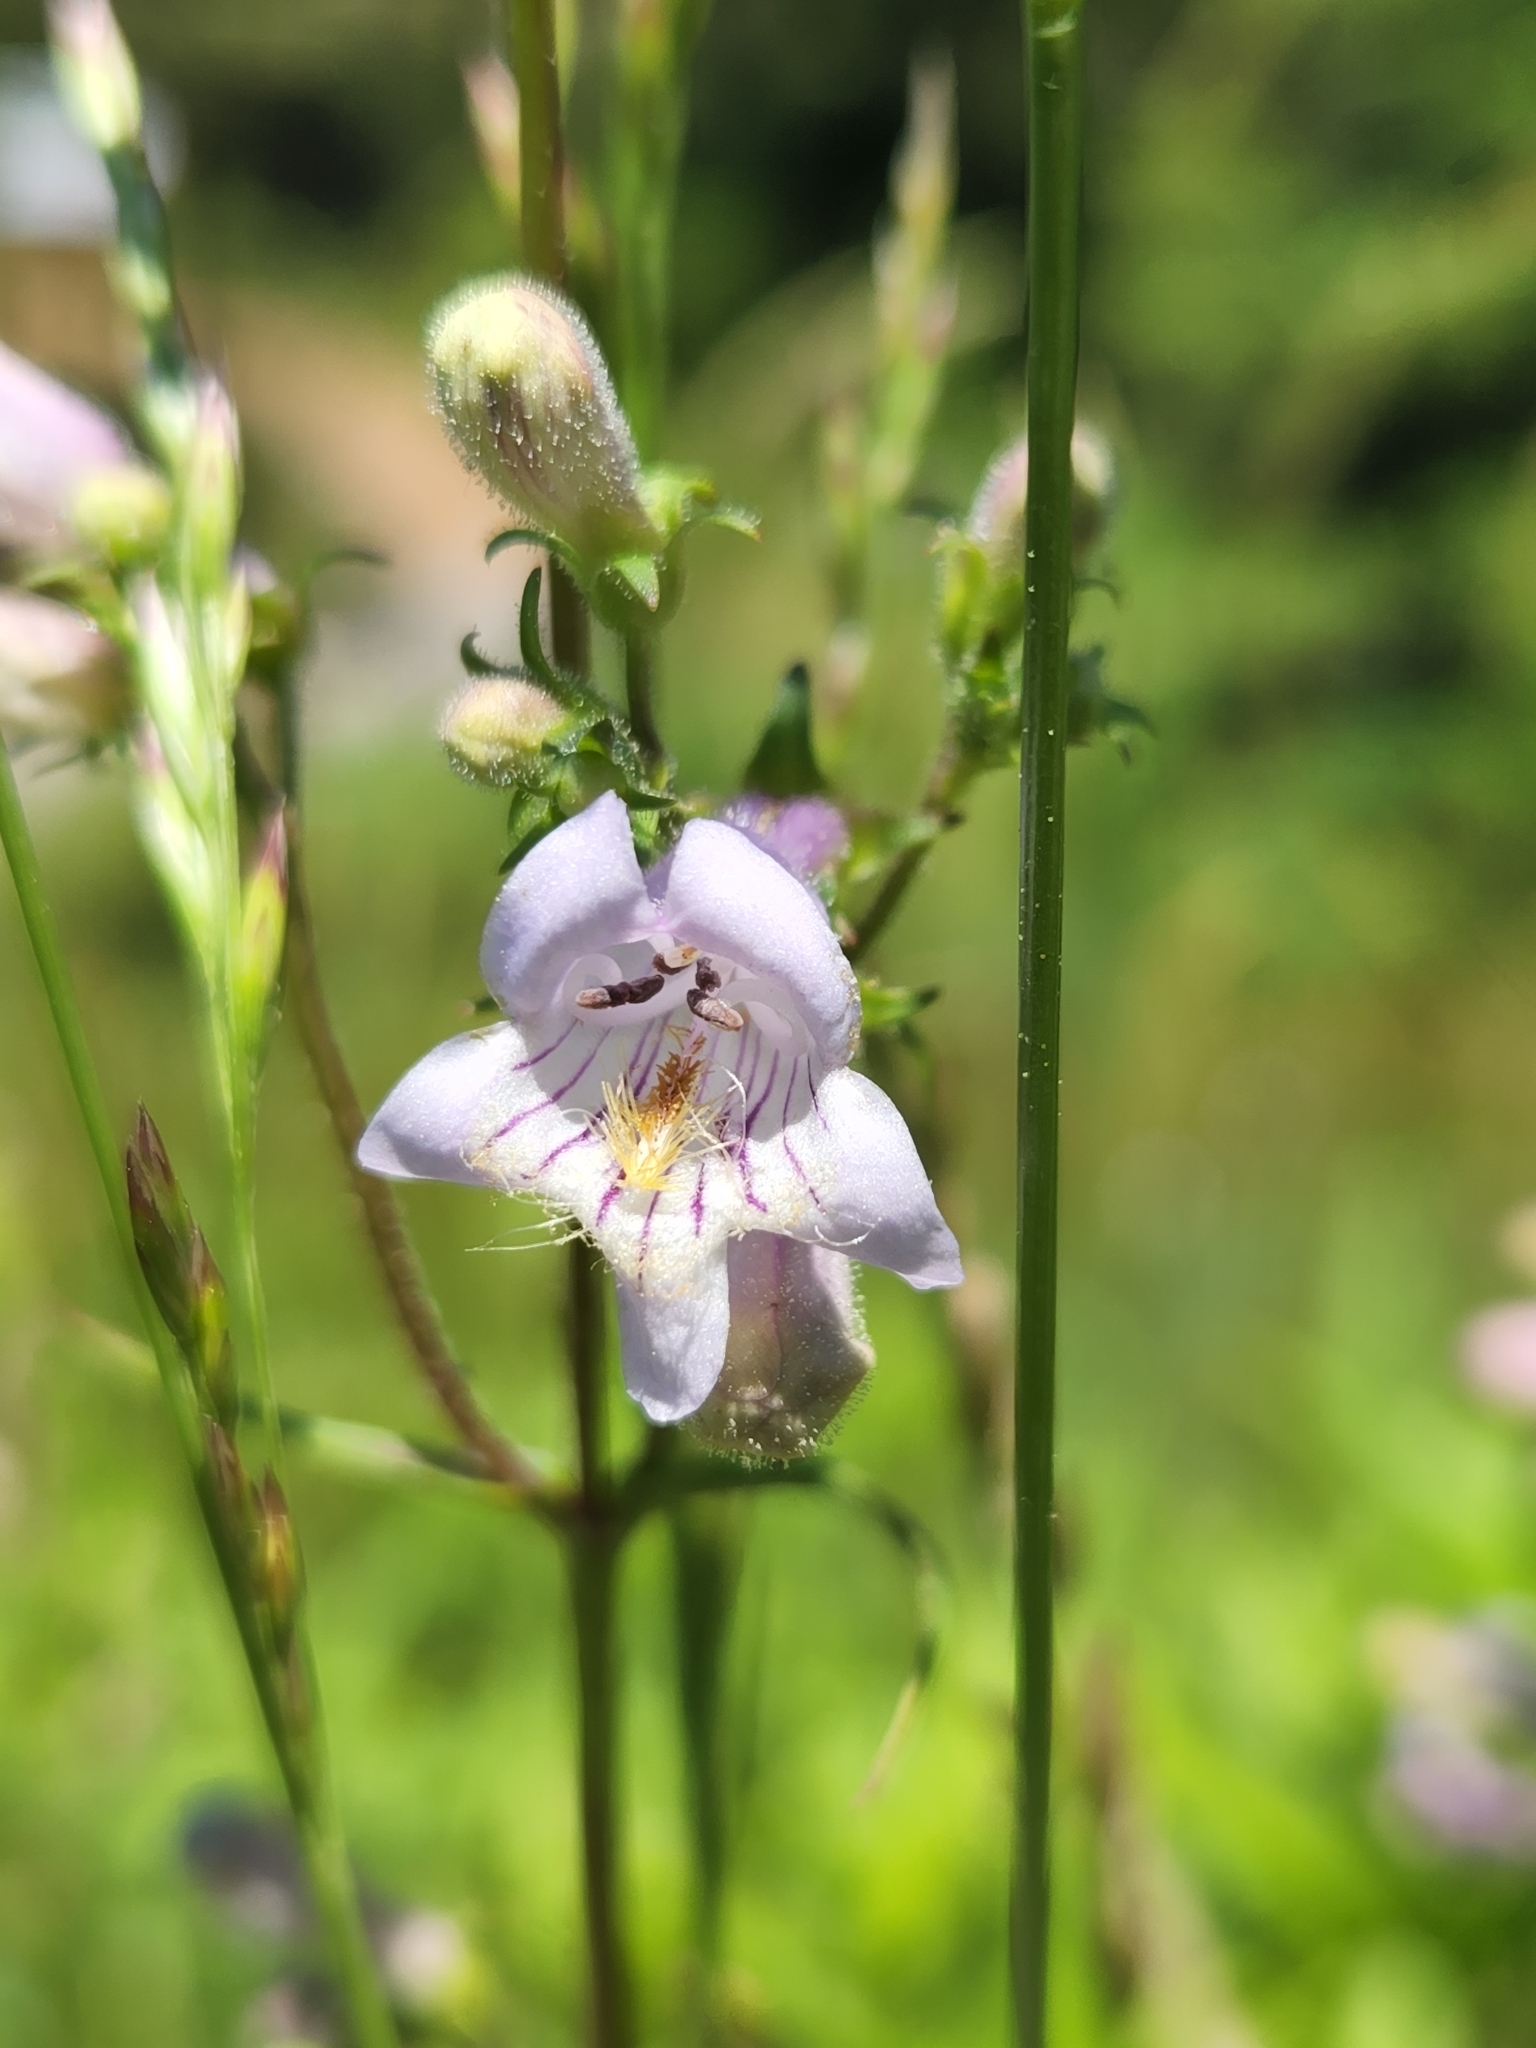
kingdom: Plantae
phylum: Tracheophyta
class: Magnoliopsida
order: Lamiales
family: Plantaginaceae
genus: Penstemon
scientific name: Penstemon laevigatus
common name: Eastern beardtongue
